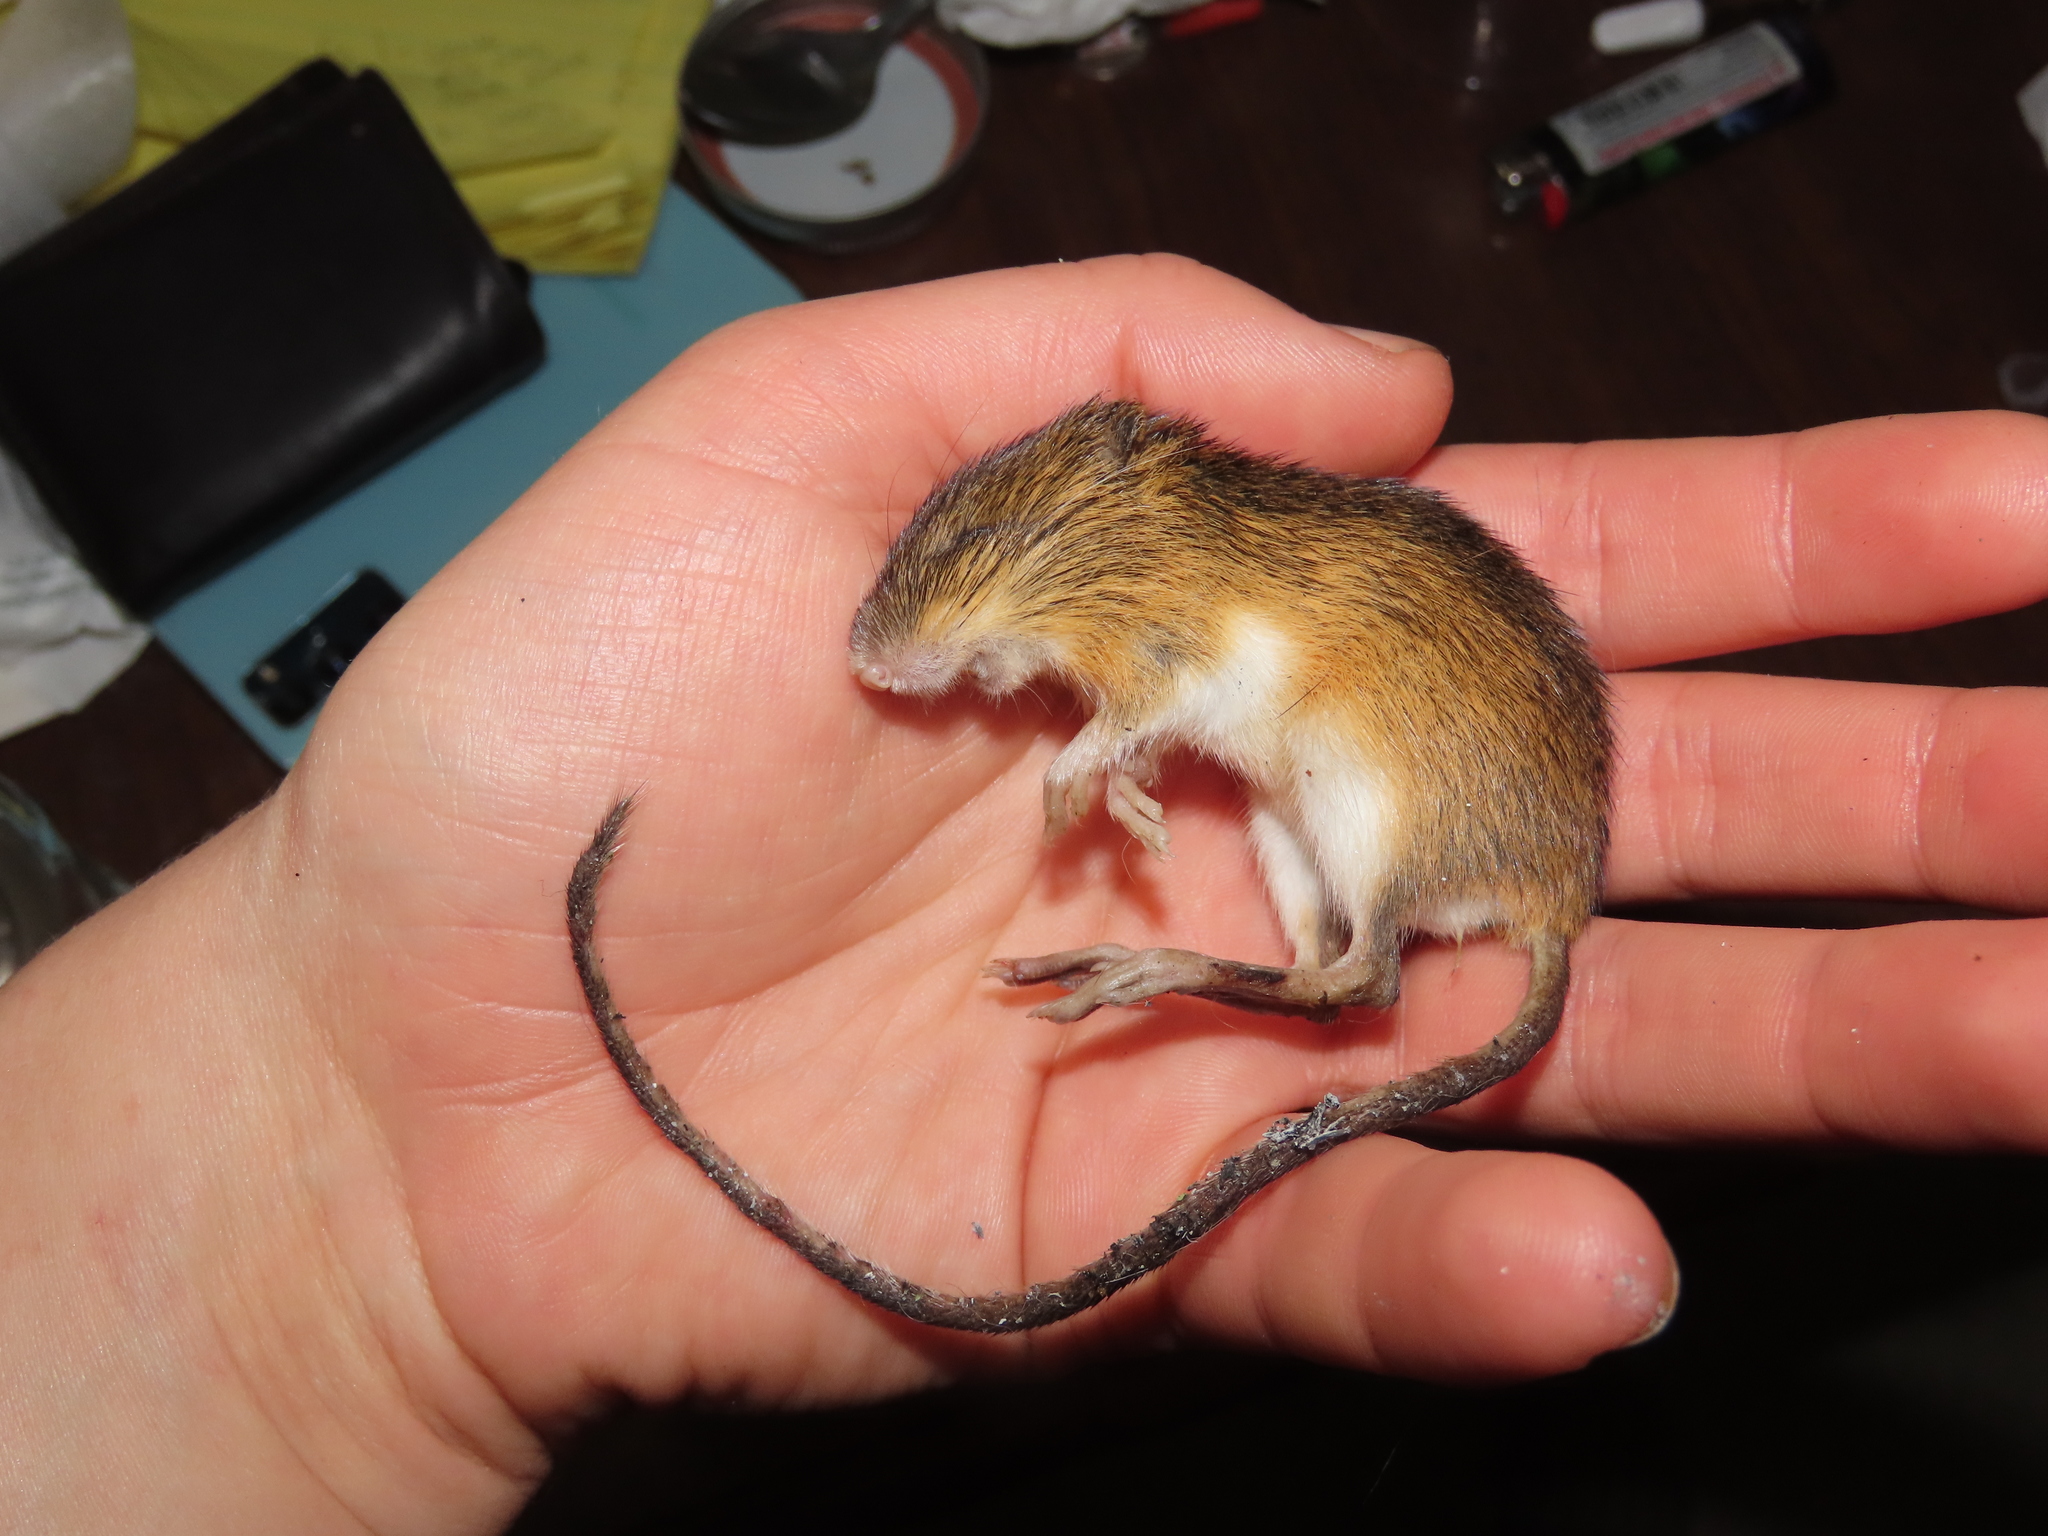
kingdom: Animalia
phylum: Chordata
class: Mammalia
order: Rodentia
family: Dipodidae
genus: Zapus
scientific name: Zapus hudsonius
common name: Meadow jumping mouse
